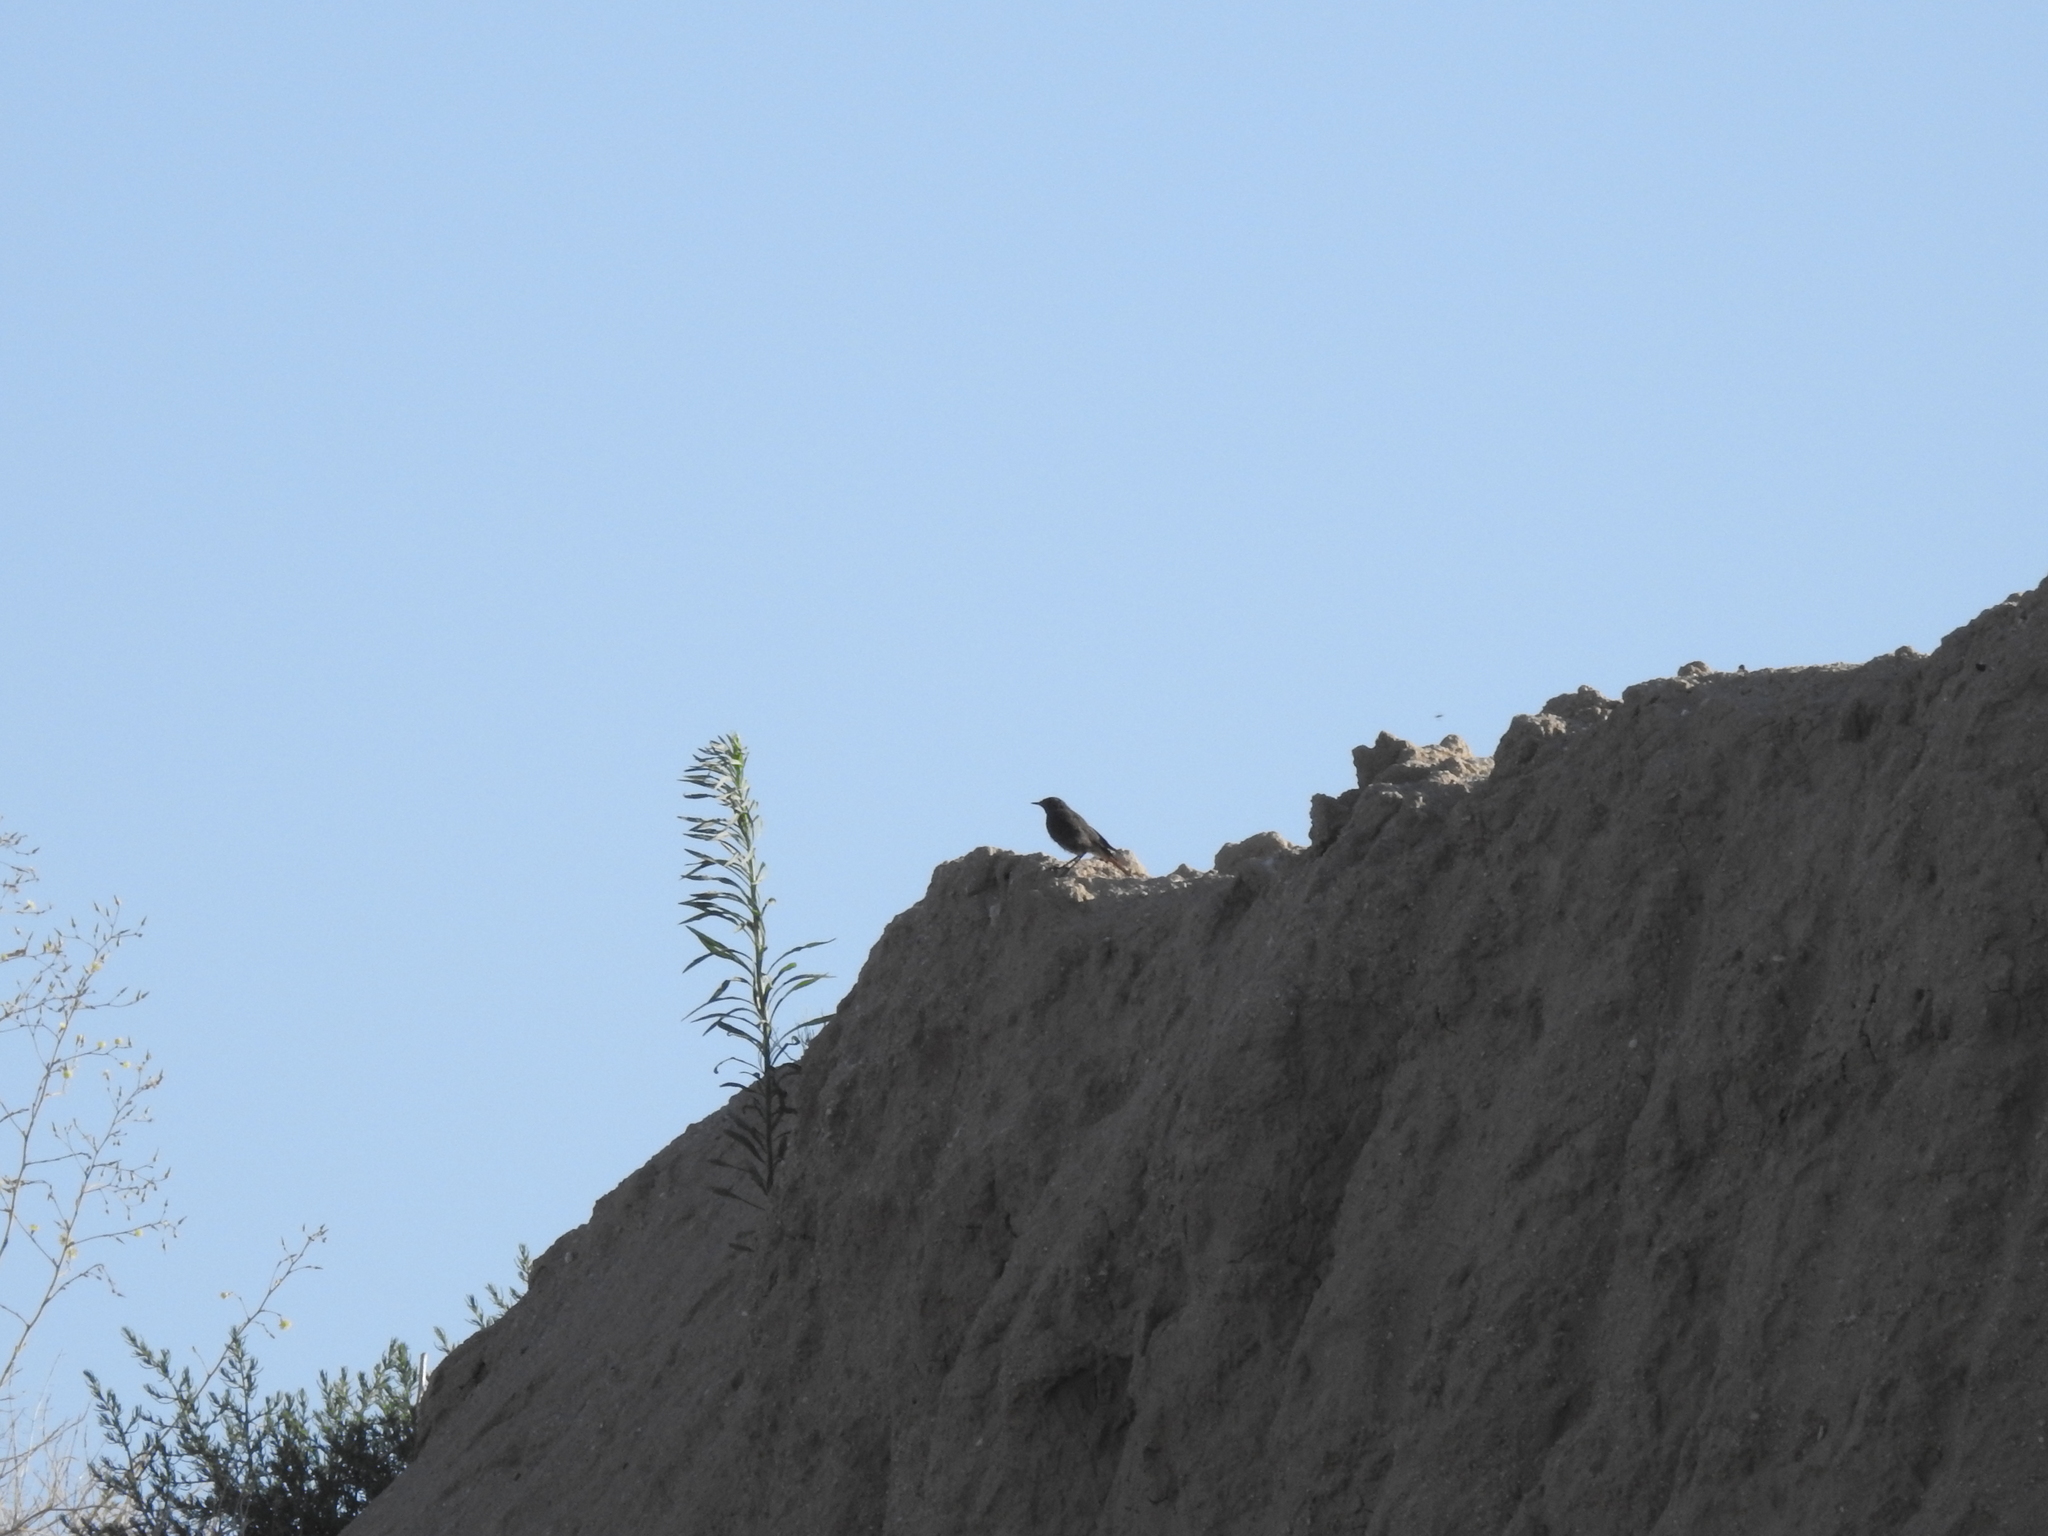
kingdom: Animalia
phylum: Chordata
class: Aves
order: Passeriformes
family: Muscicapidae
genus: Phoenicurus
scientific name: Phoenicurus ochruros
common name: Black redstart
